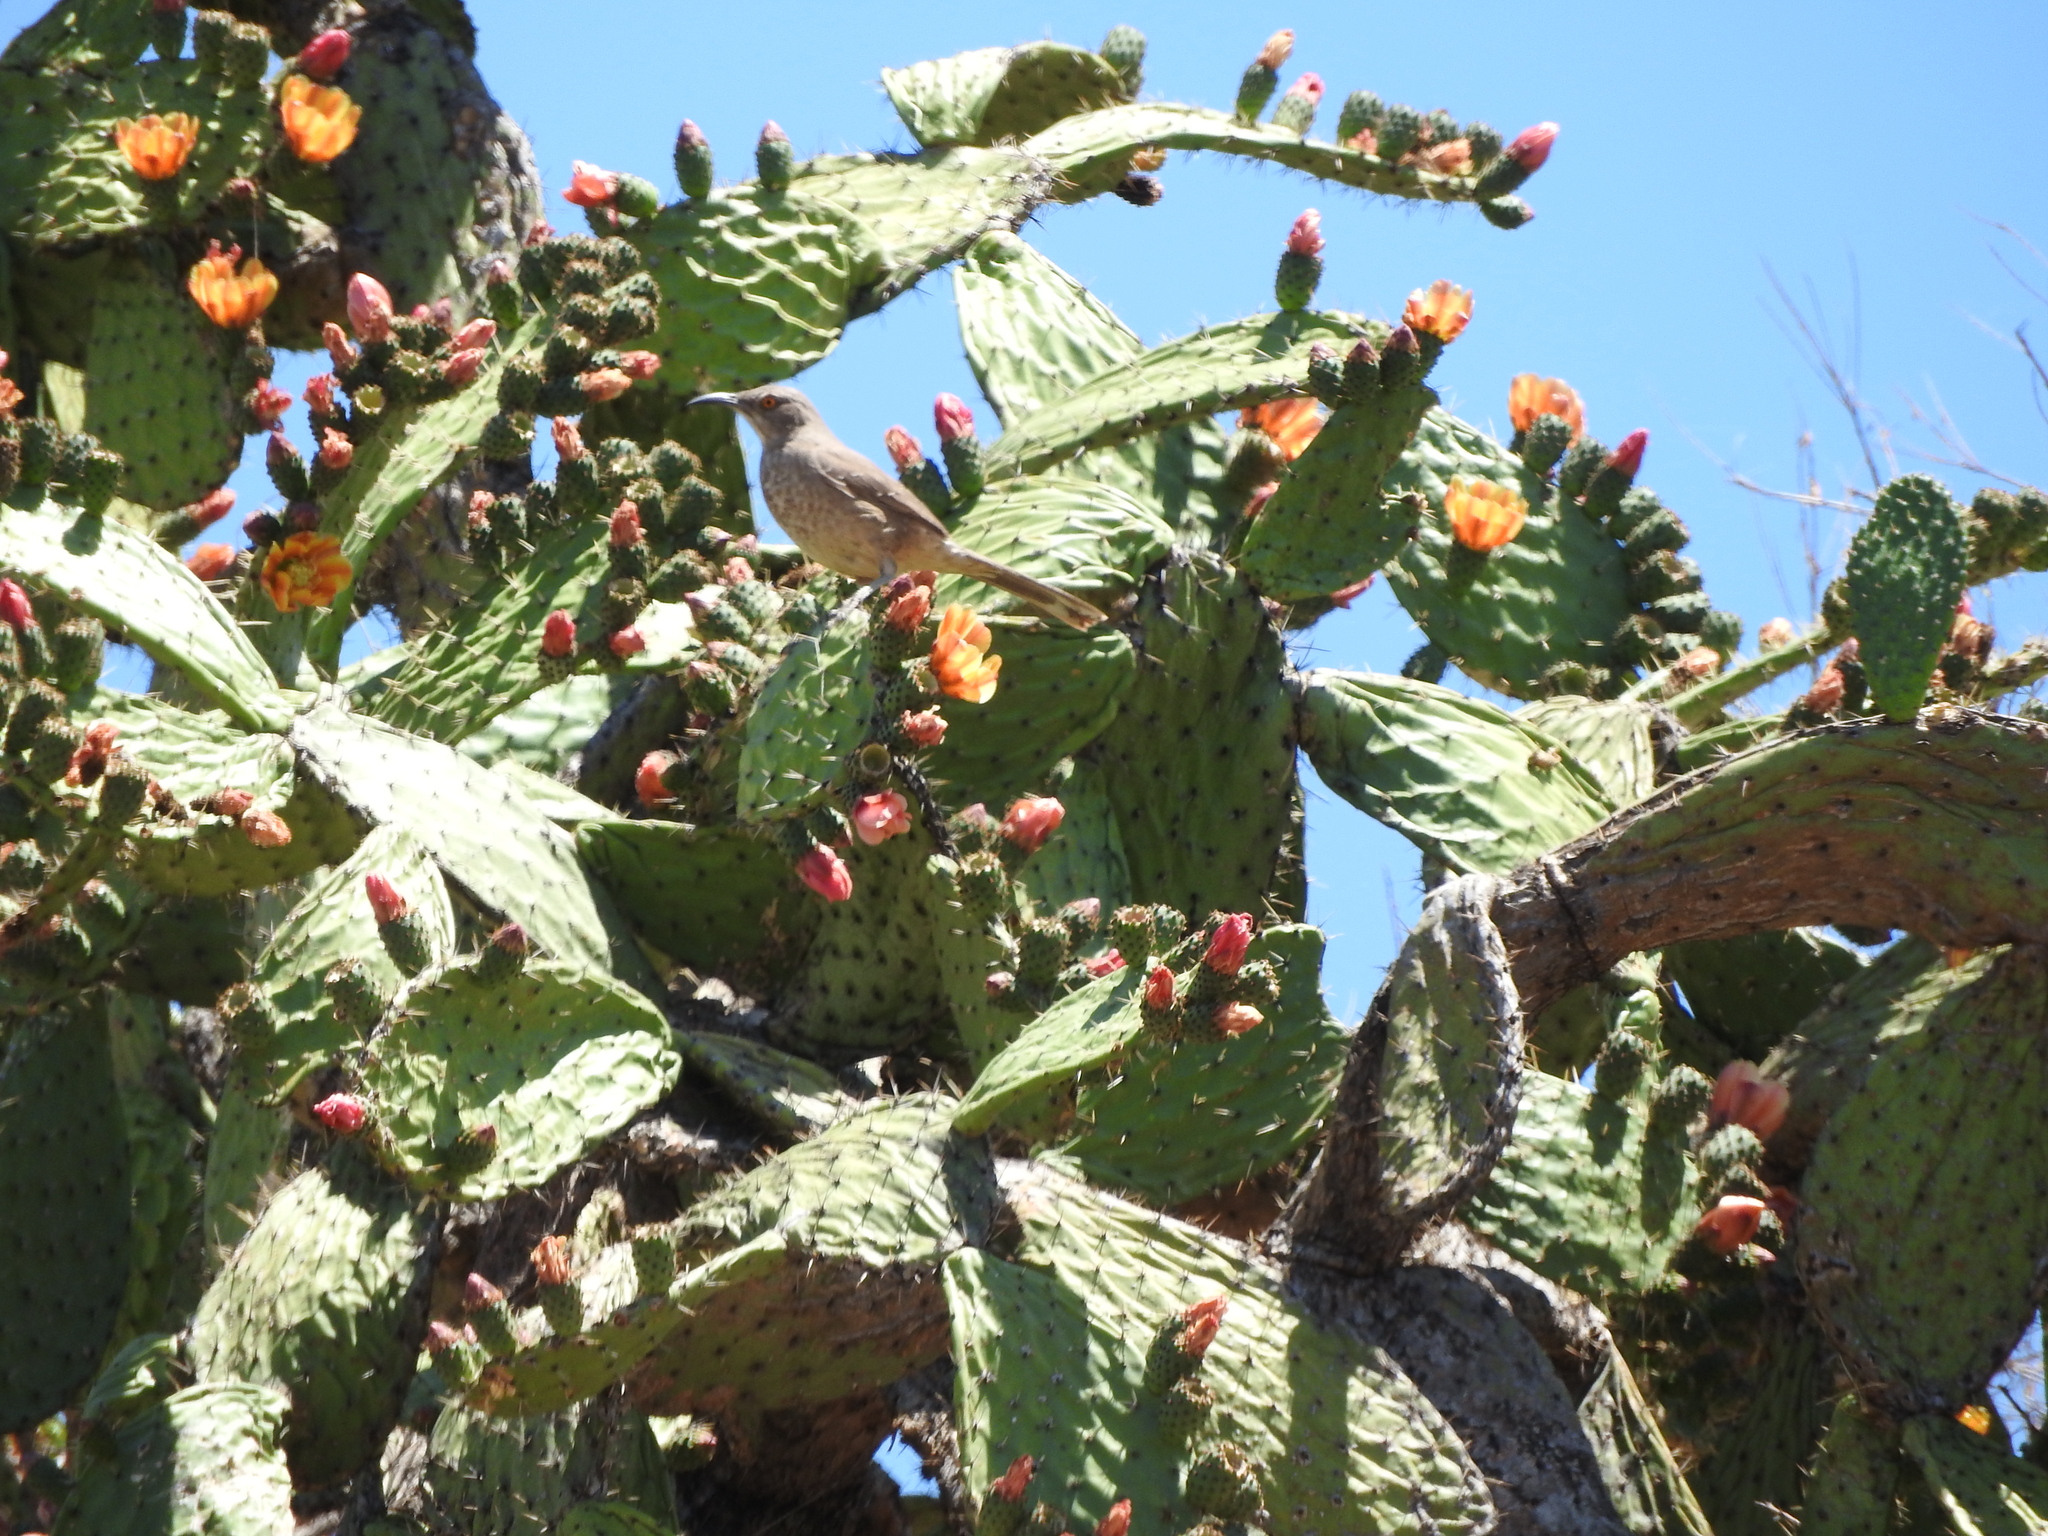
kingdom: Animalia
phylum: Chordata
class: Aves
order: Passeriformes
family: Mimidae
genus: Toxostoma
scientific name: Toxostoma curvirostre
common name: Curve-billed thrasher
